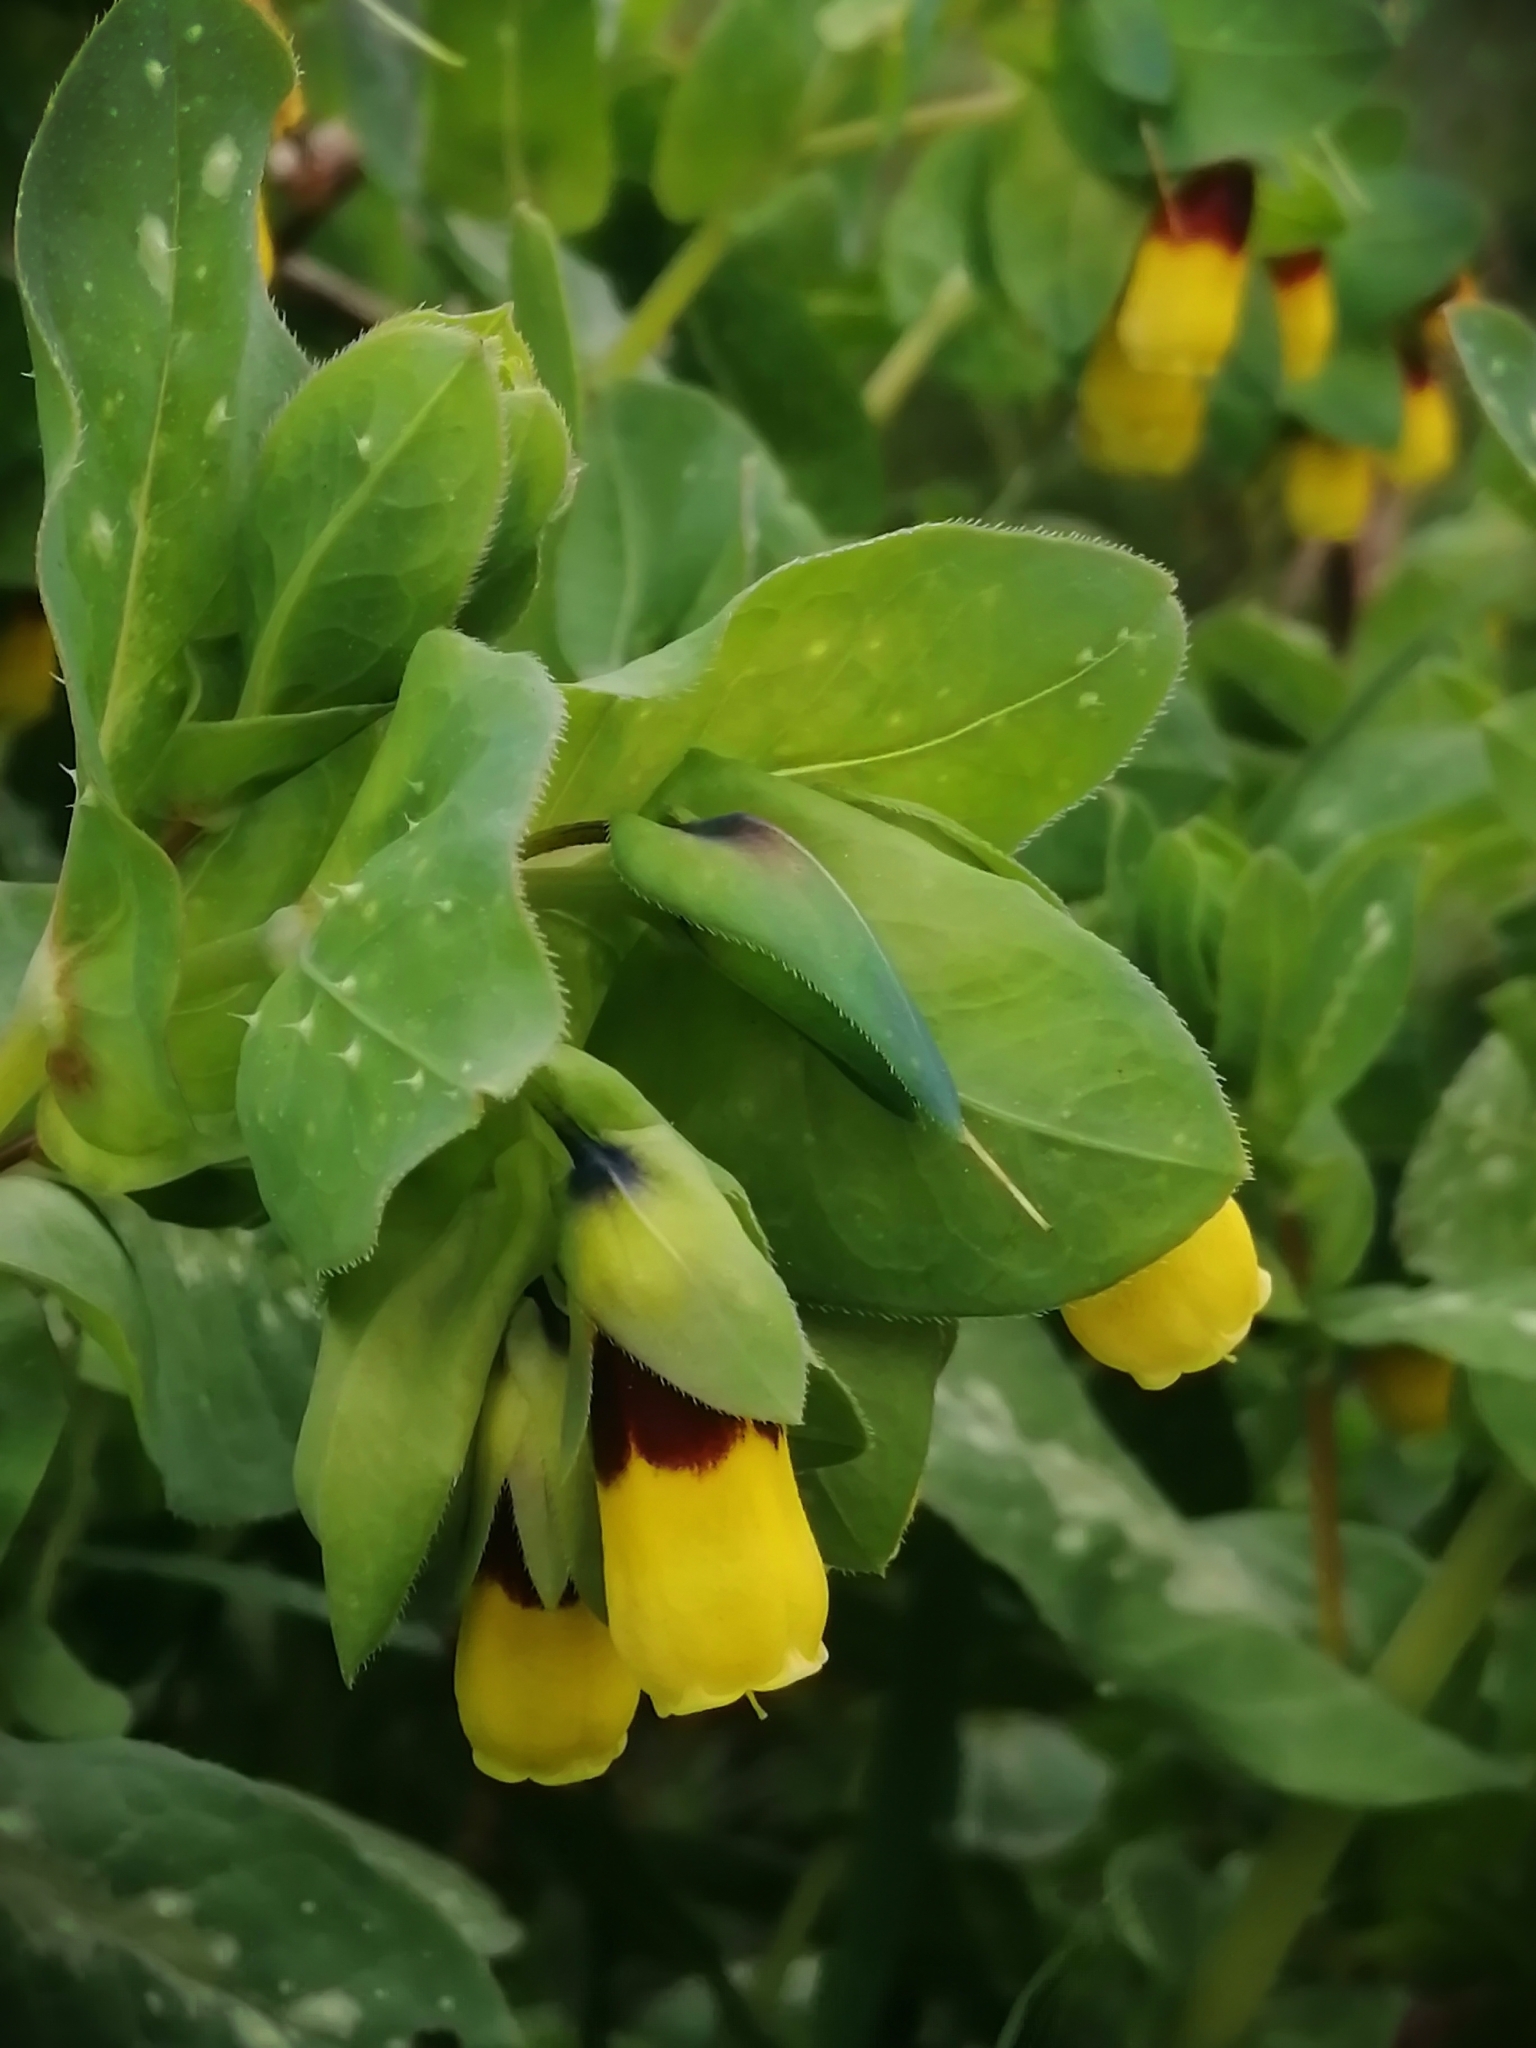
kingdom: Plantae
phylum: Tracheophyta
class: Magnoliopsida
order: Boraginales
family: Boraginaceae
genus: Cerinthe
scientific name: Cerinthe major
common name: Greater honeywort
